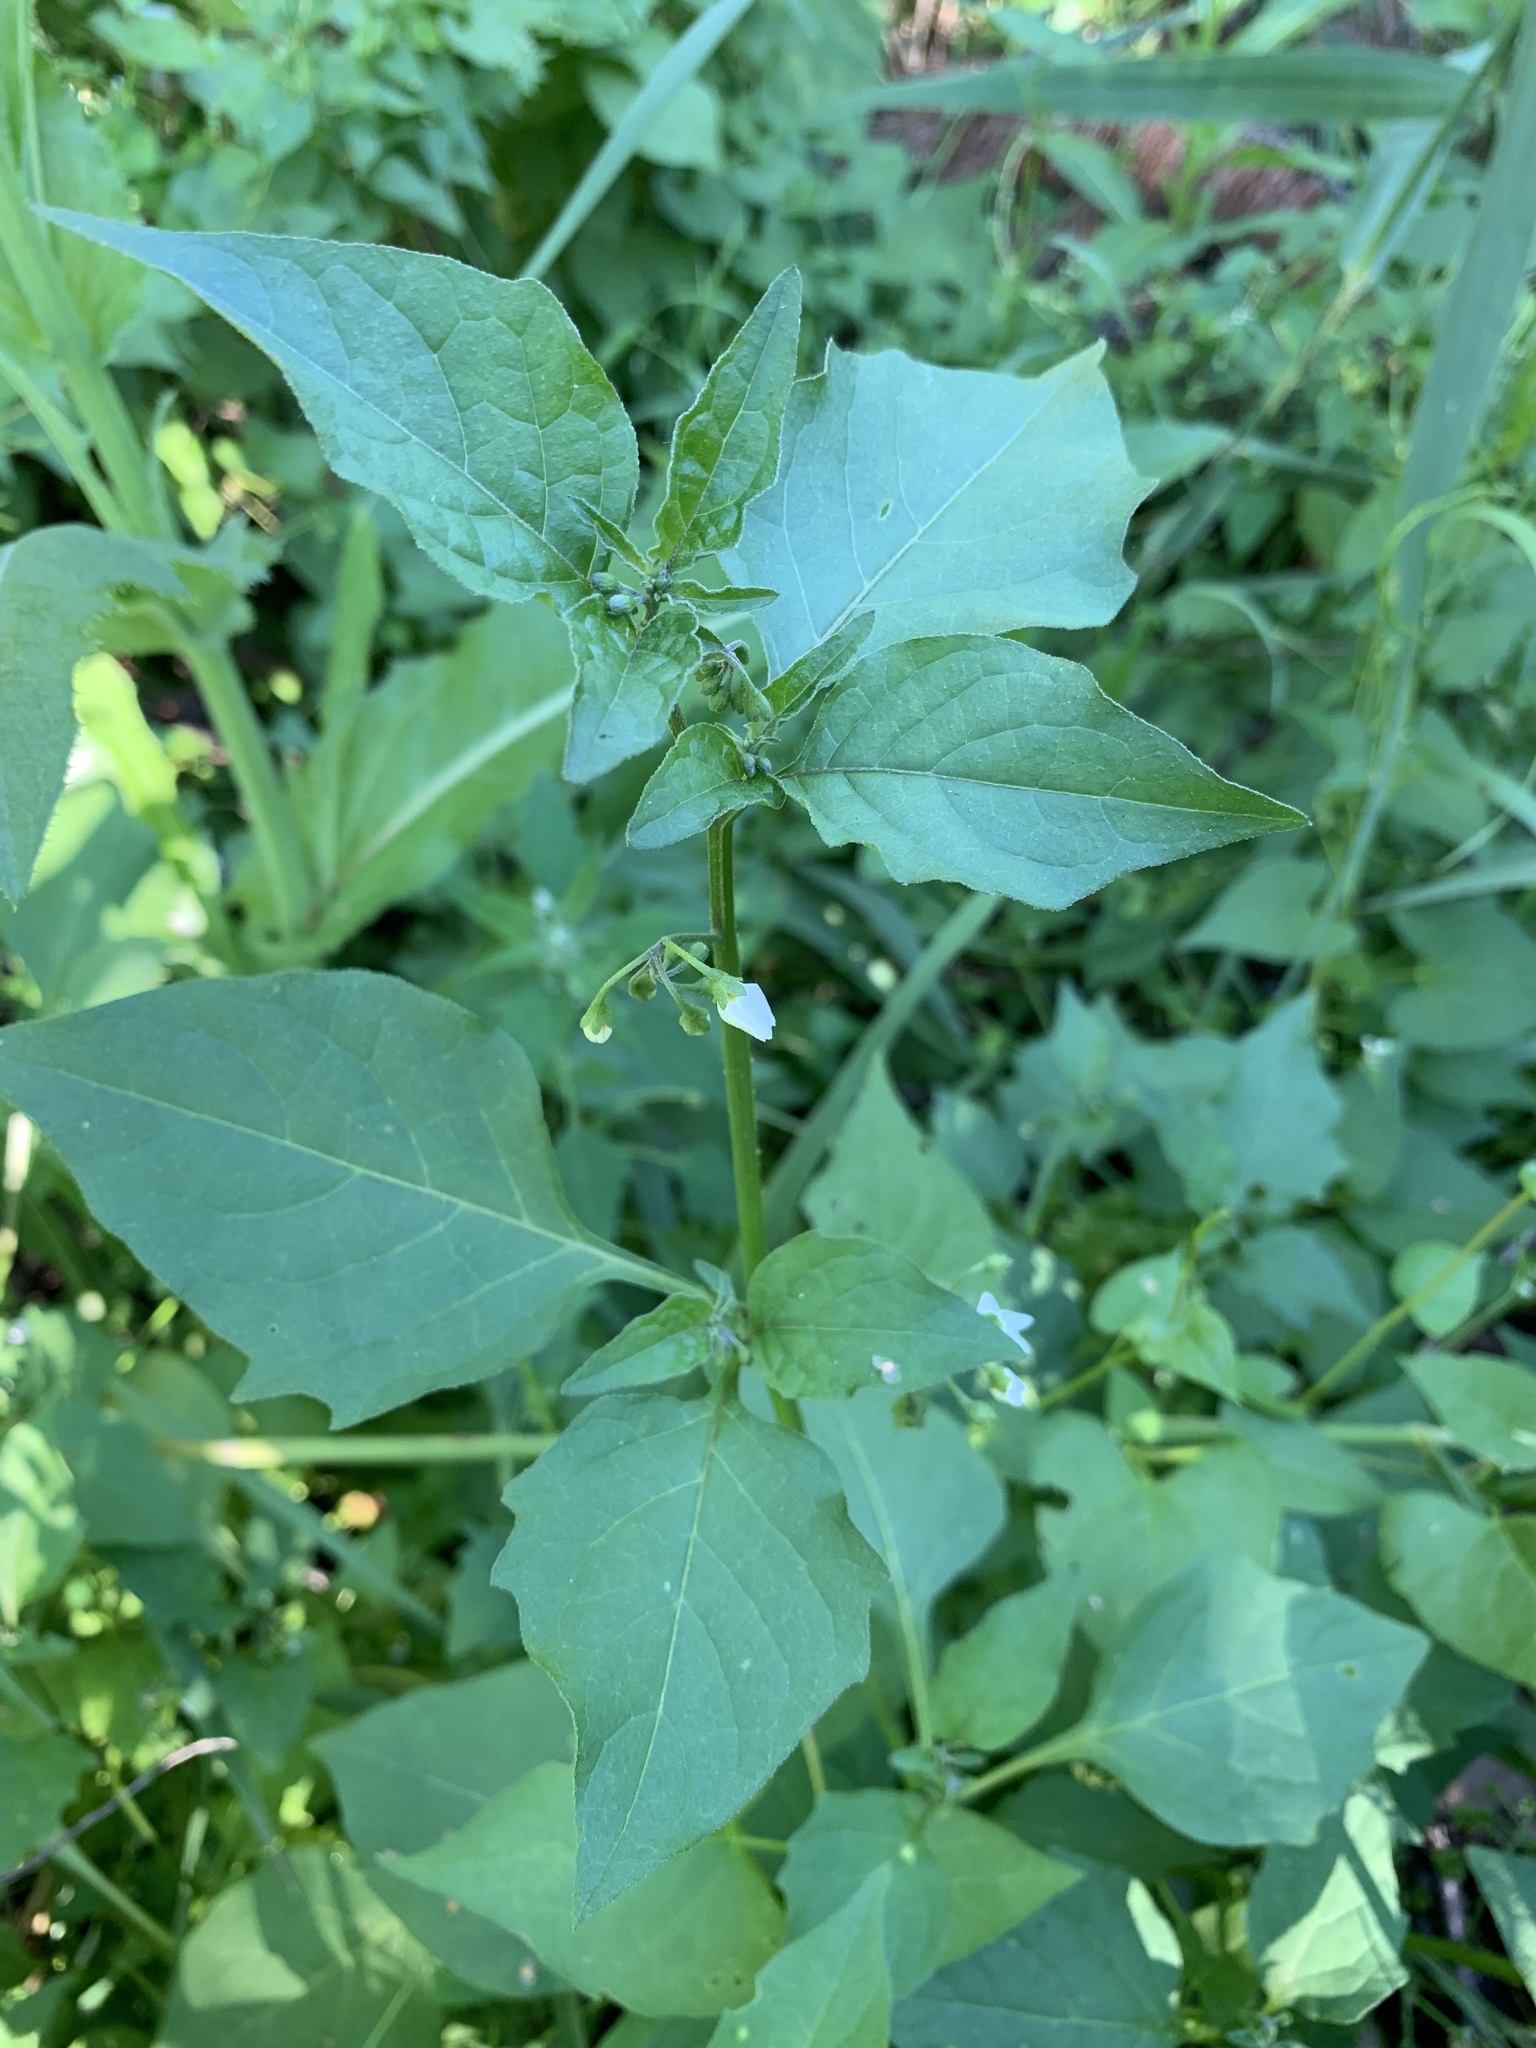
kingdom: Plantae
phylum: Tracheophyta
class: Magnoliopsida
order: Solanales
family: Solanaceae
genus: Solanum
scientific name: Solanum nigrum
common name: Black nightshade
